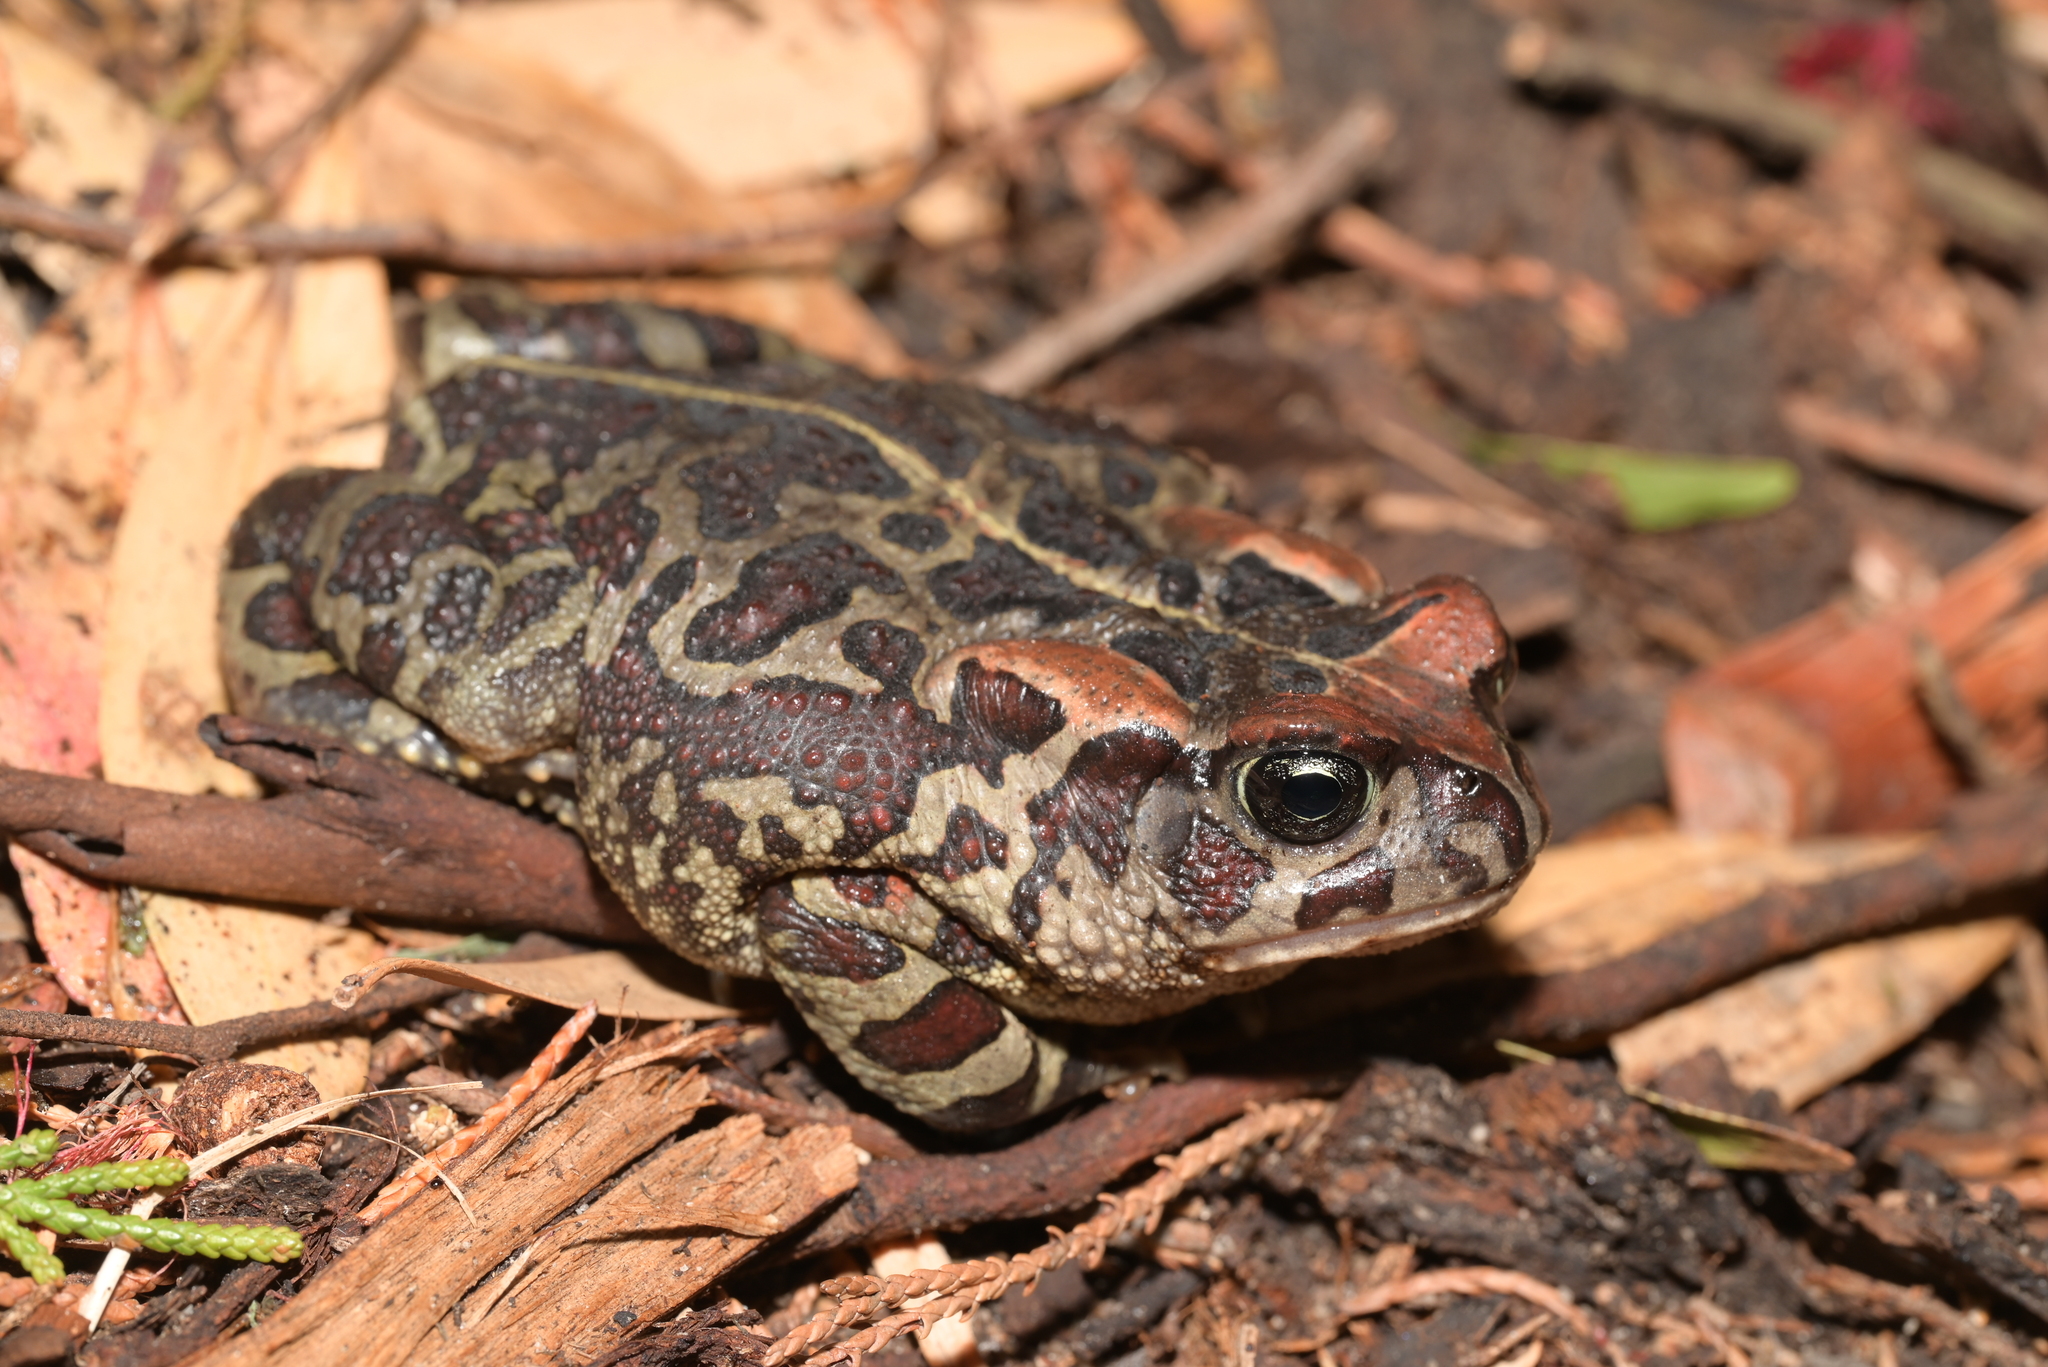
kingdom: Animalia
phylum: Chordata
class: Amphibia
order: Anura
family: Bufonidae
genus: Sclerophrys
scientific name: Sclerophrys pantherina
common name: Panther toad
